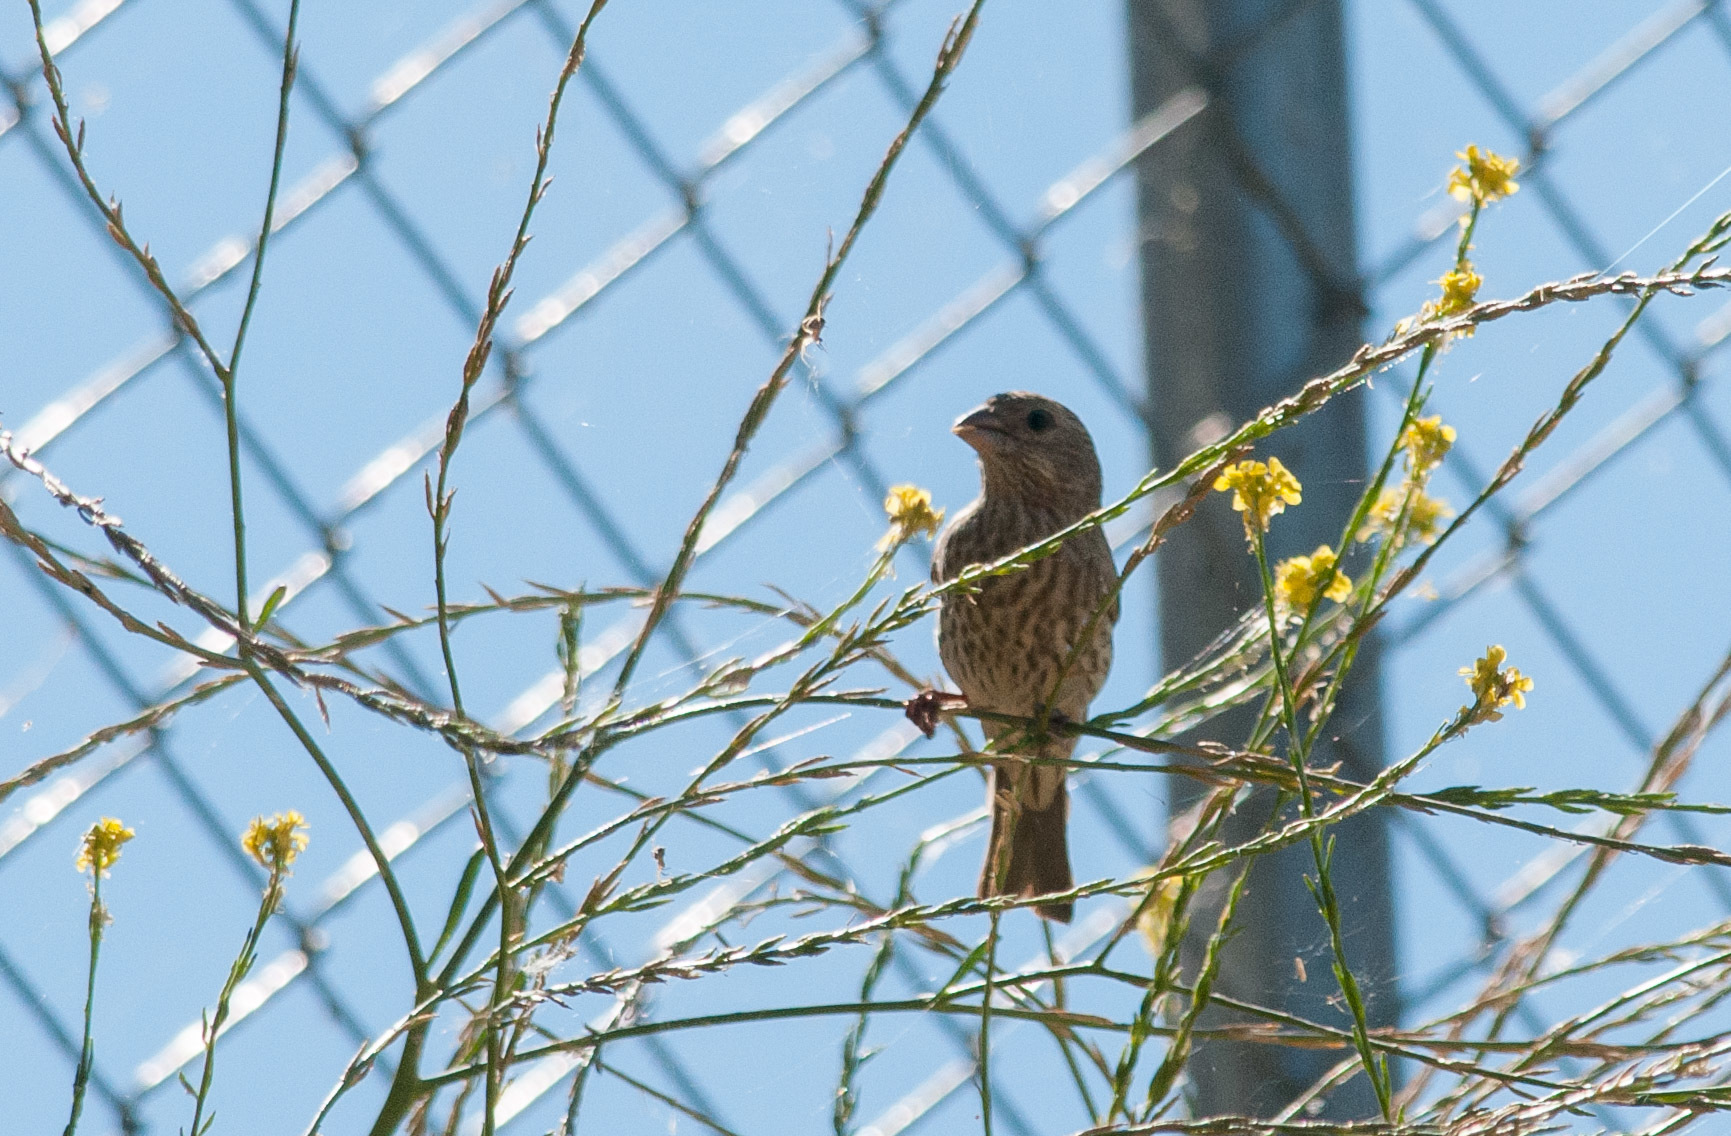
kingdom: Animalia
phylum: Chordata
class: Aves
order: Passeriformes
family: Fringillidae
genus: Haemorhous
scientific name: Haemorhous mexicanus
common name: House finch
